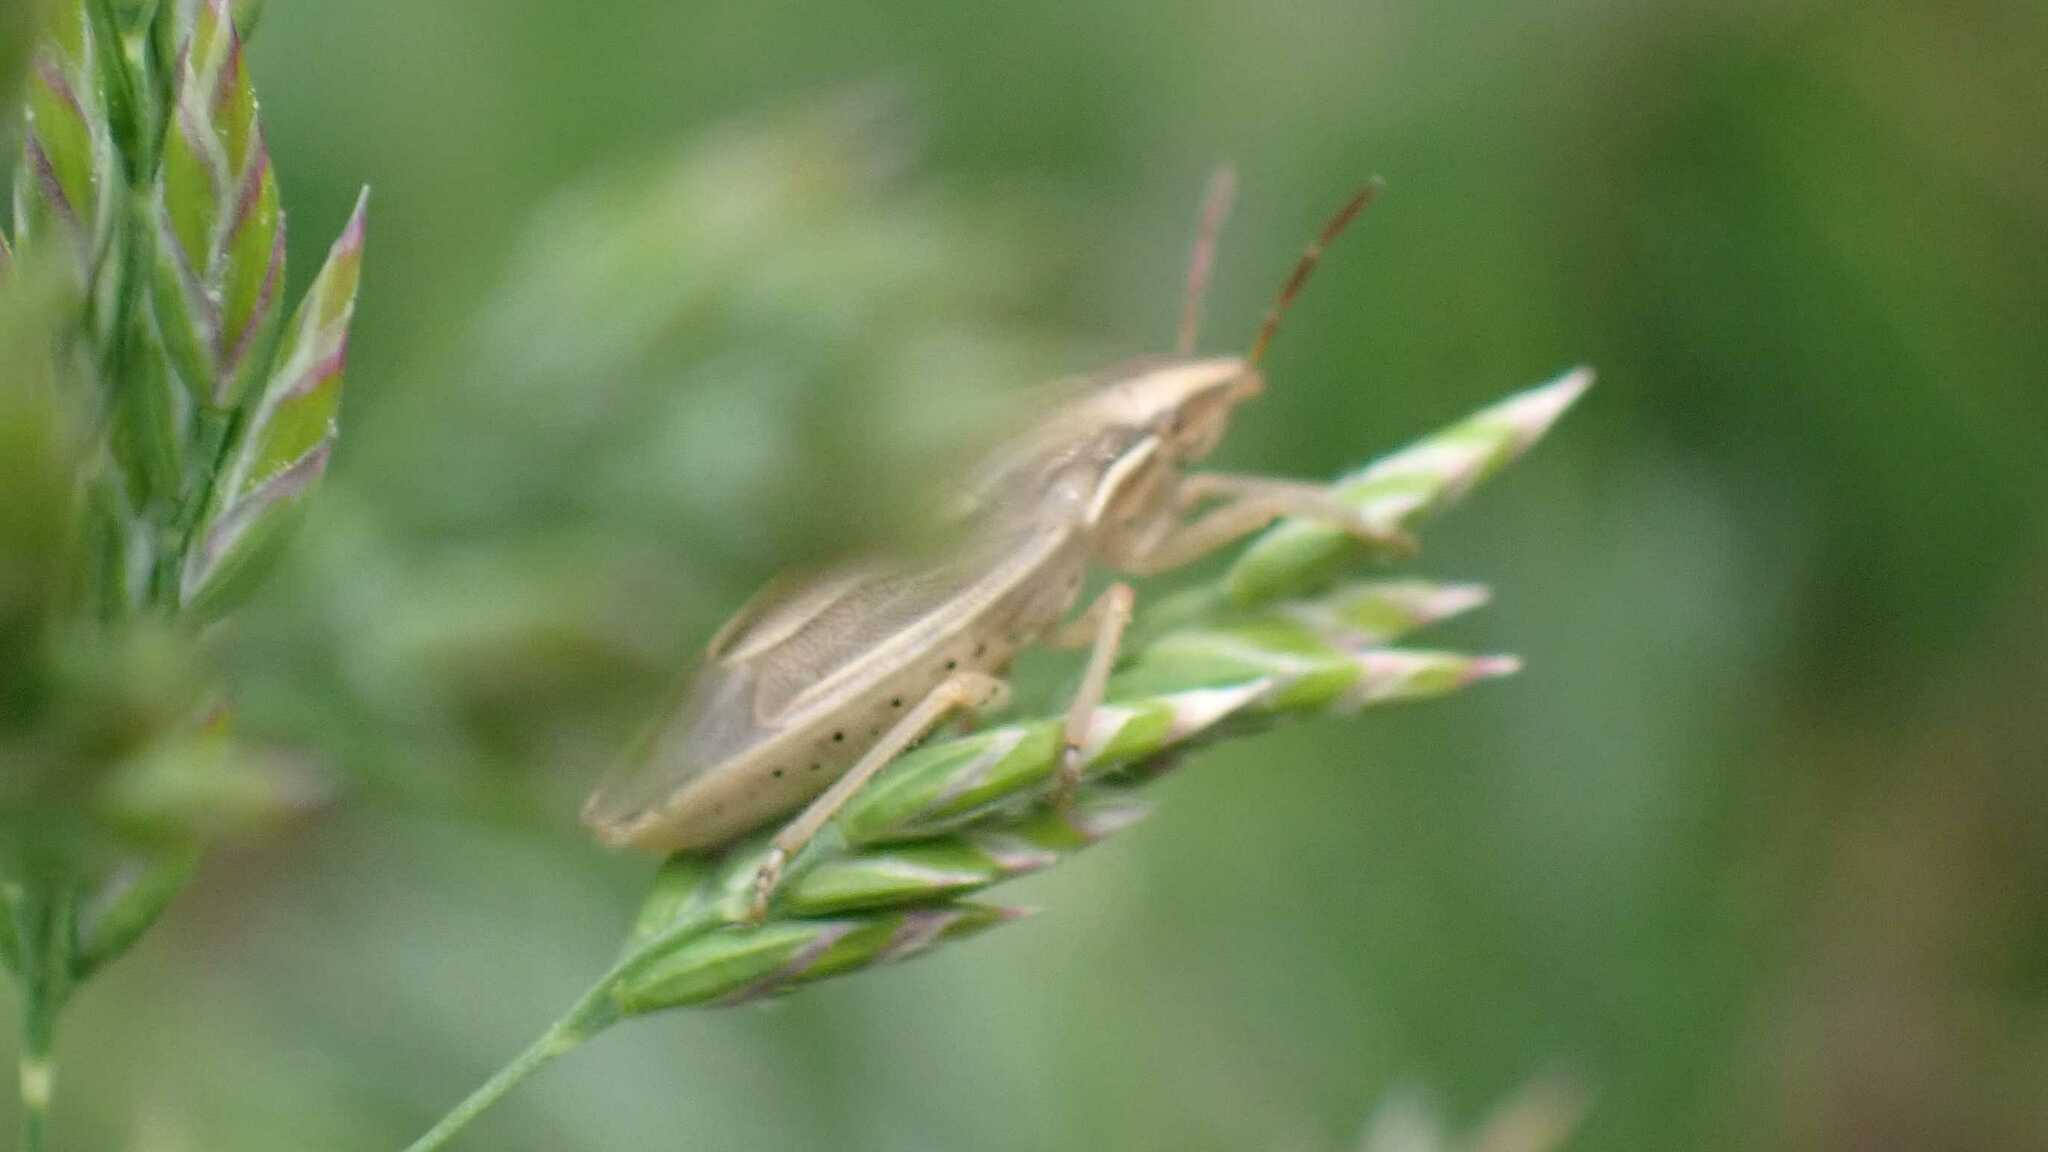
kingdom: Animalia
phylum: Arthropoda
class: Insecta
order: Hemiptera
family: Pentatomidae
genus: Aelia
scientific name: Aelia acuminata
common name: Bishop's mitre
